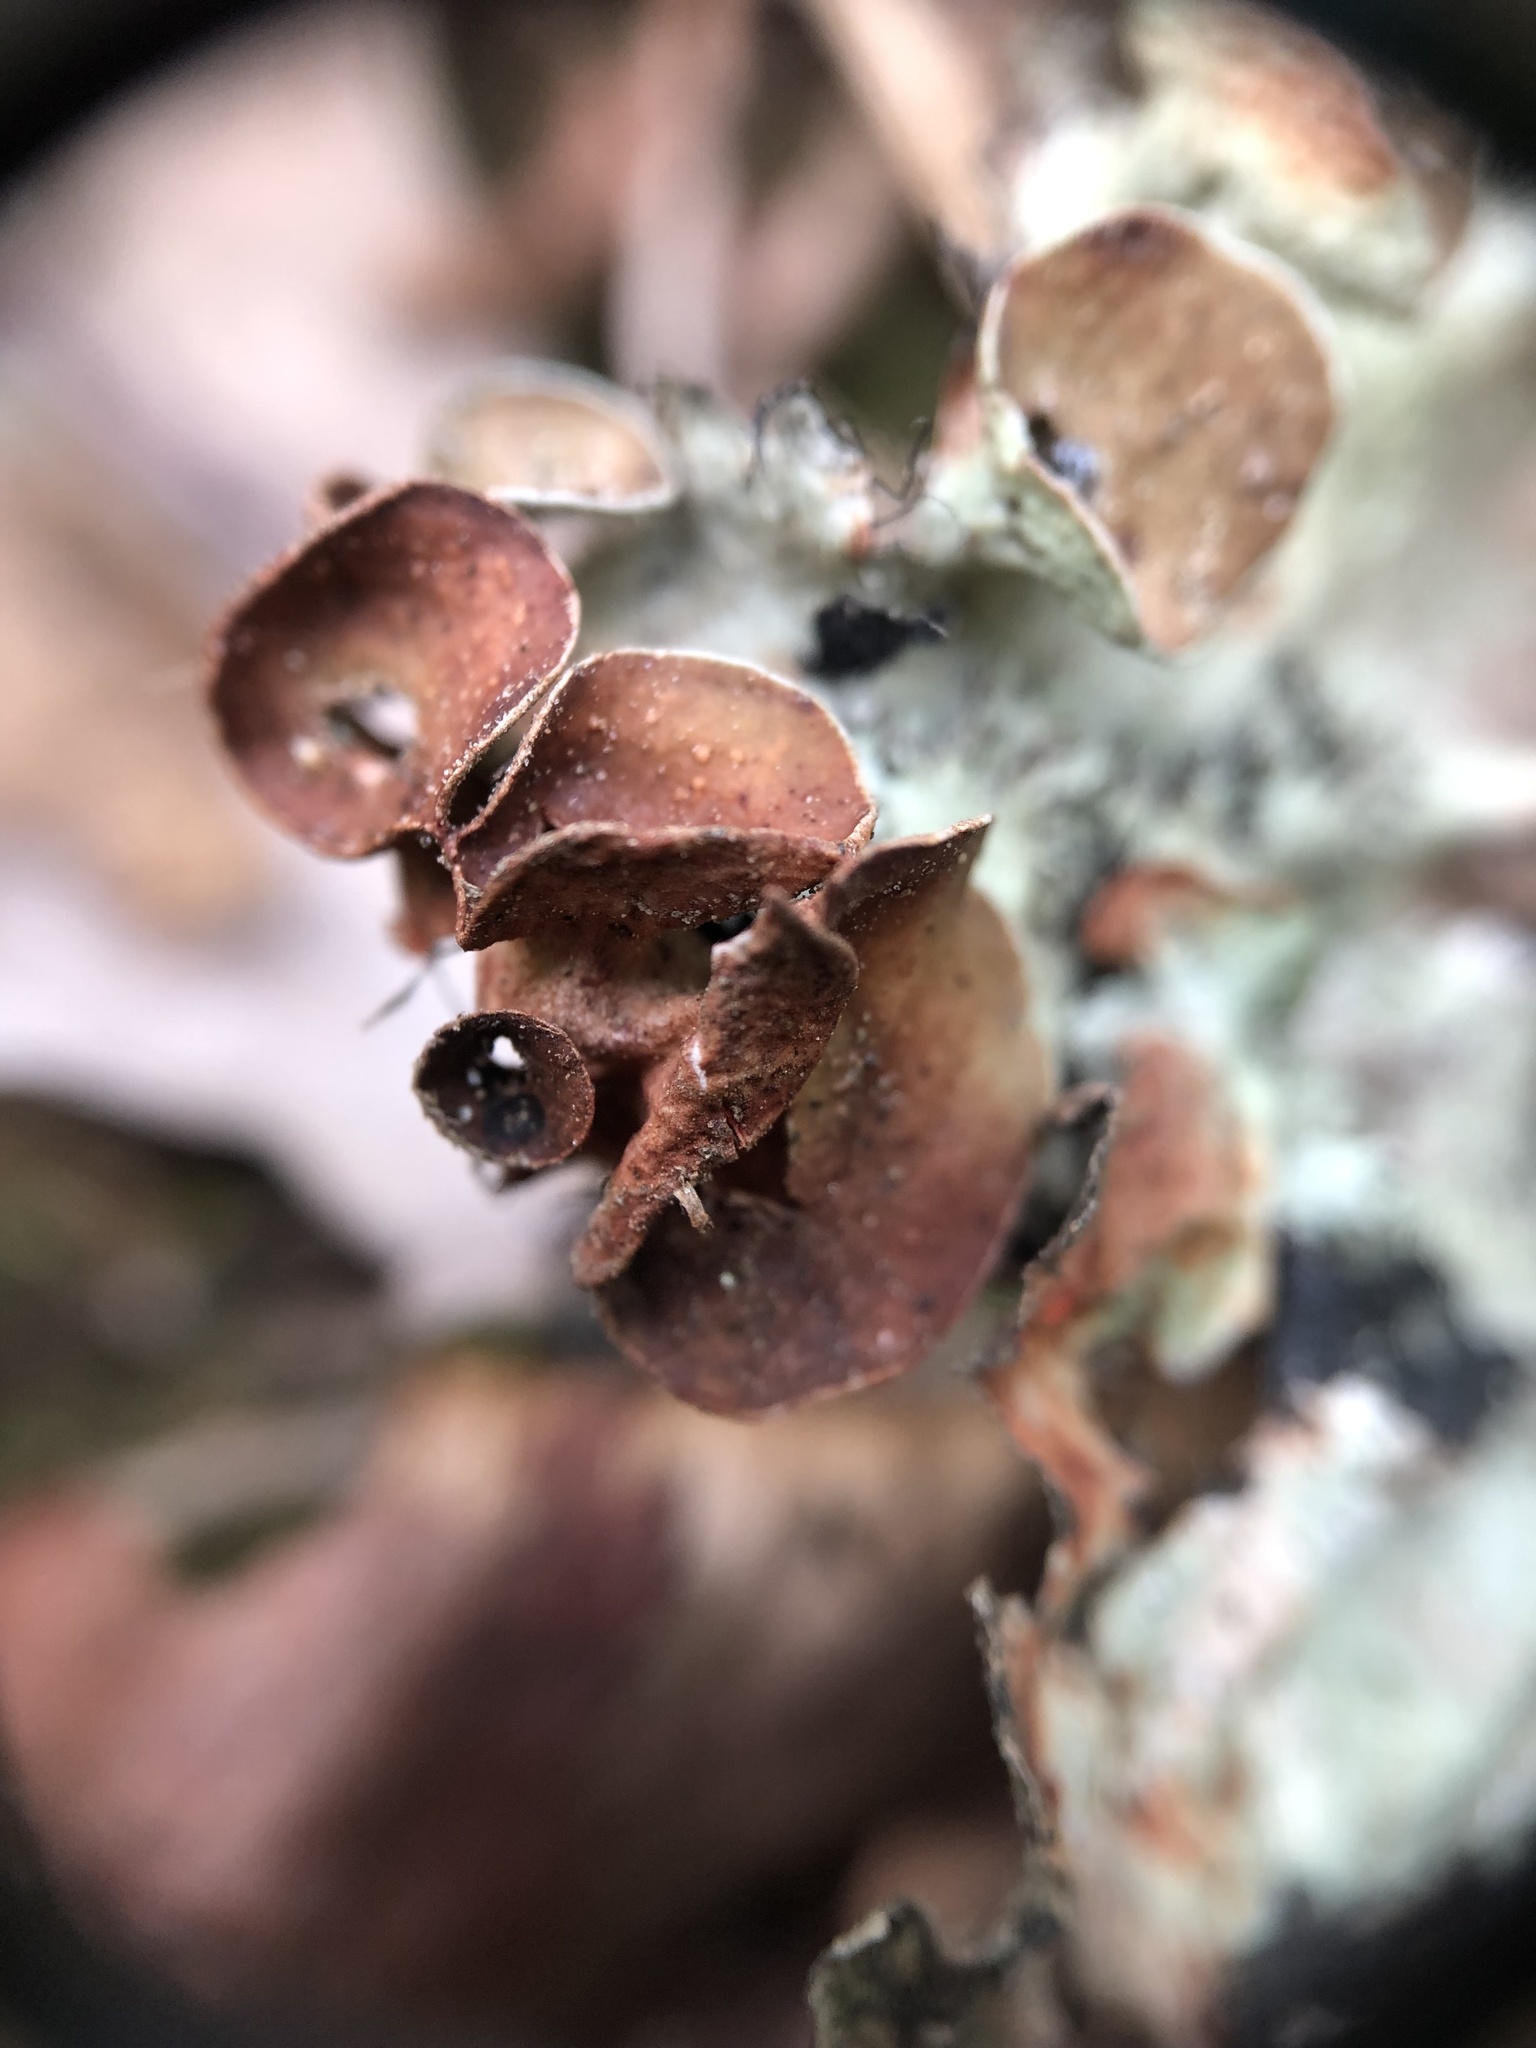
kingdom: Fungi
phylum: Ascomycota
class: Lecanoromycetes
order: Lecanorales
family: Parmeliaceae
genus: Parmotrema
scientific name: Parmotrema perforatum
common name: Perforated ruffle lichen
